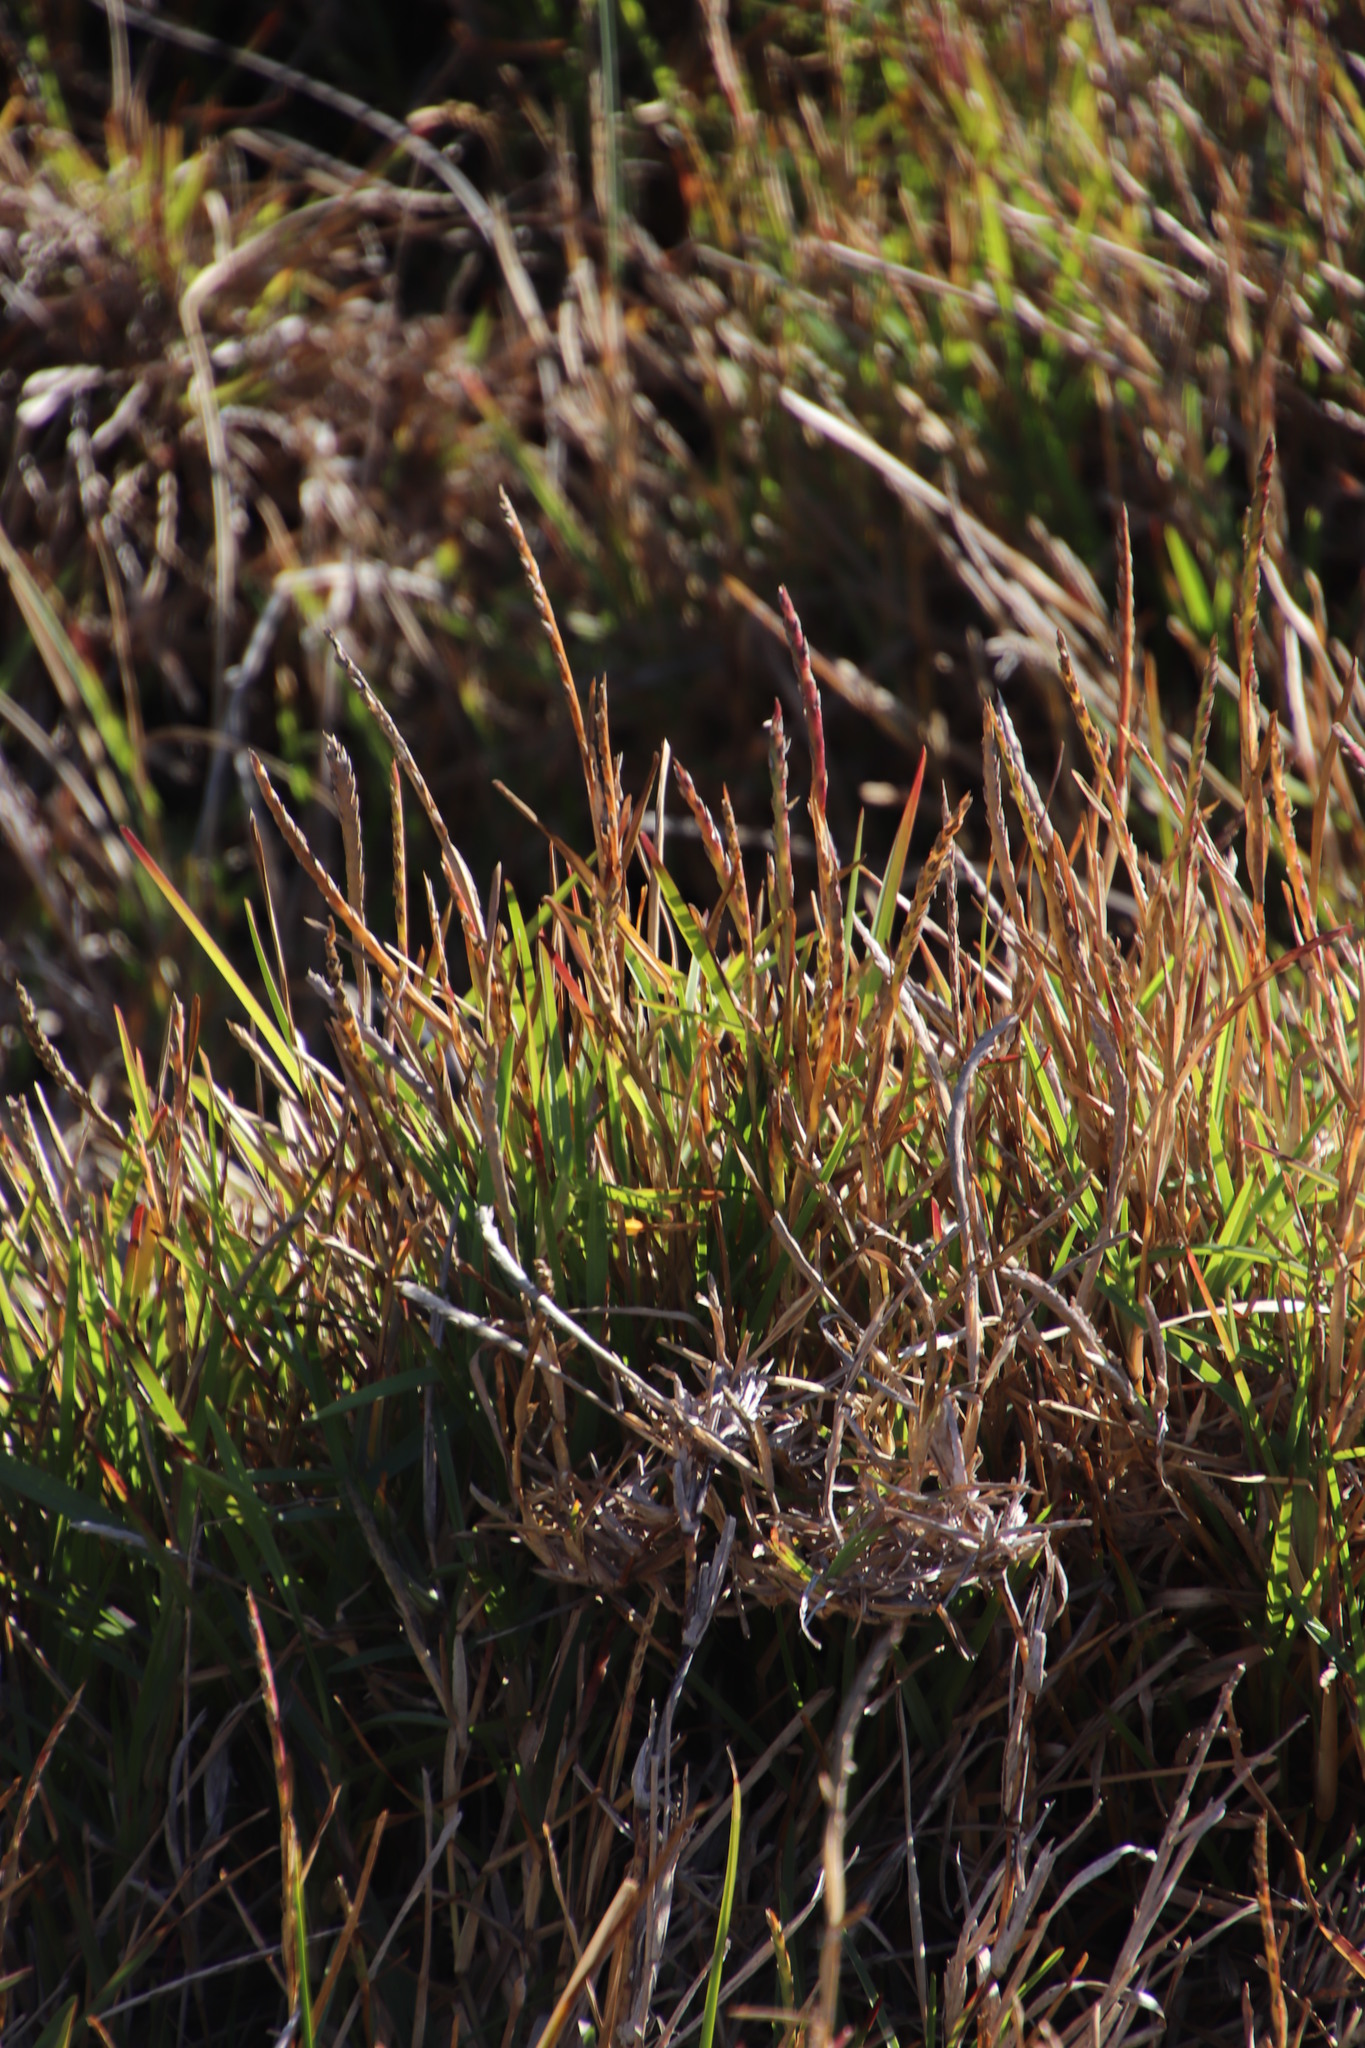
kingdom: Plantae
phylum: Tracheophyta
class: Liliopsida
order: Poales
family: Poaceae
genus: Stenotaphrum
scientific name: Stenotaphrum secundatum
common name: St. augustine grass
